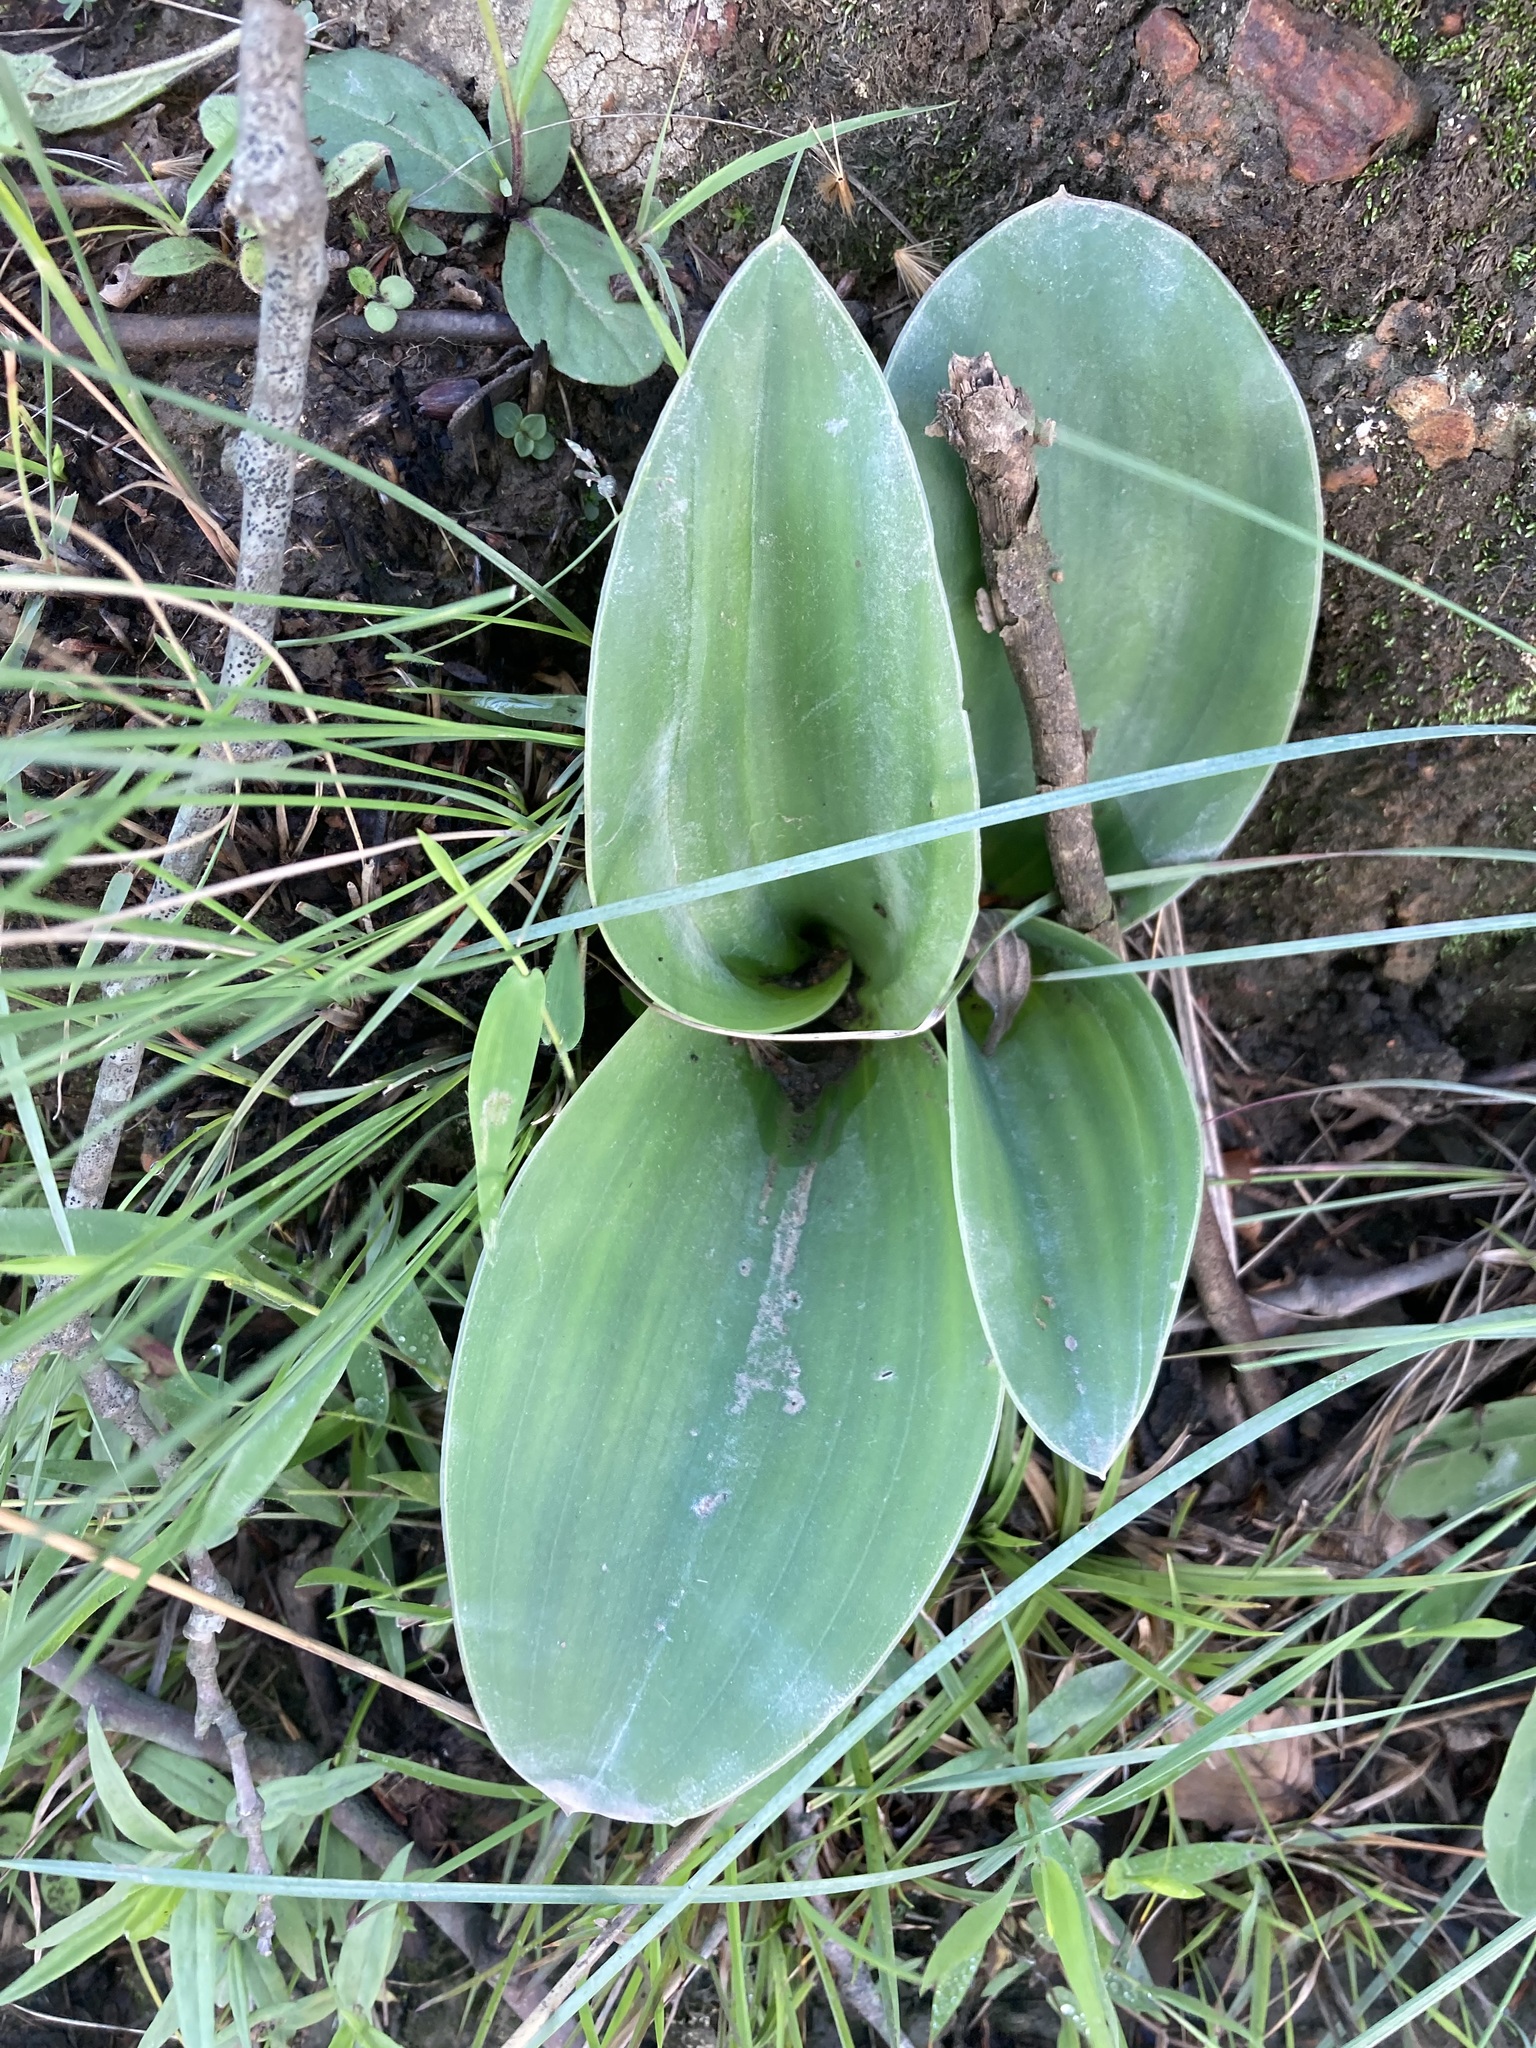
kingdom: Plantae
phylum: Tracheophyta
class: Liliopsida
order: Asparagales
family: Orchidaceae
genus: Disa
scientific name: Disa patula
